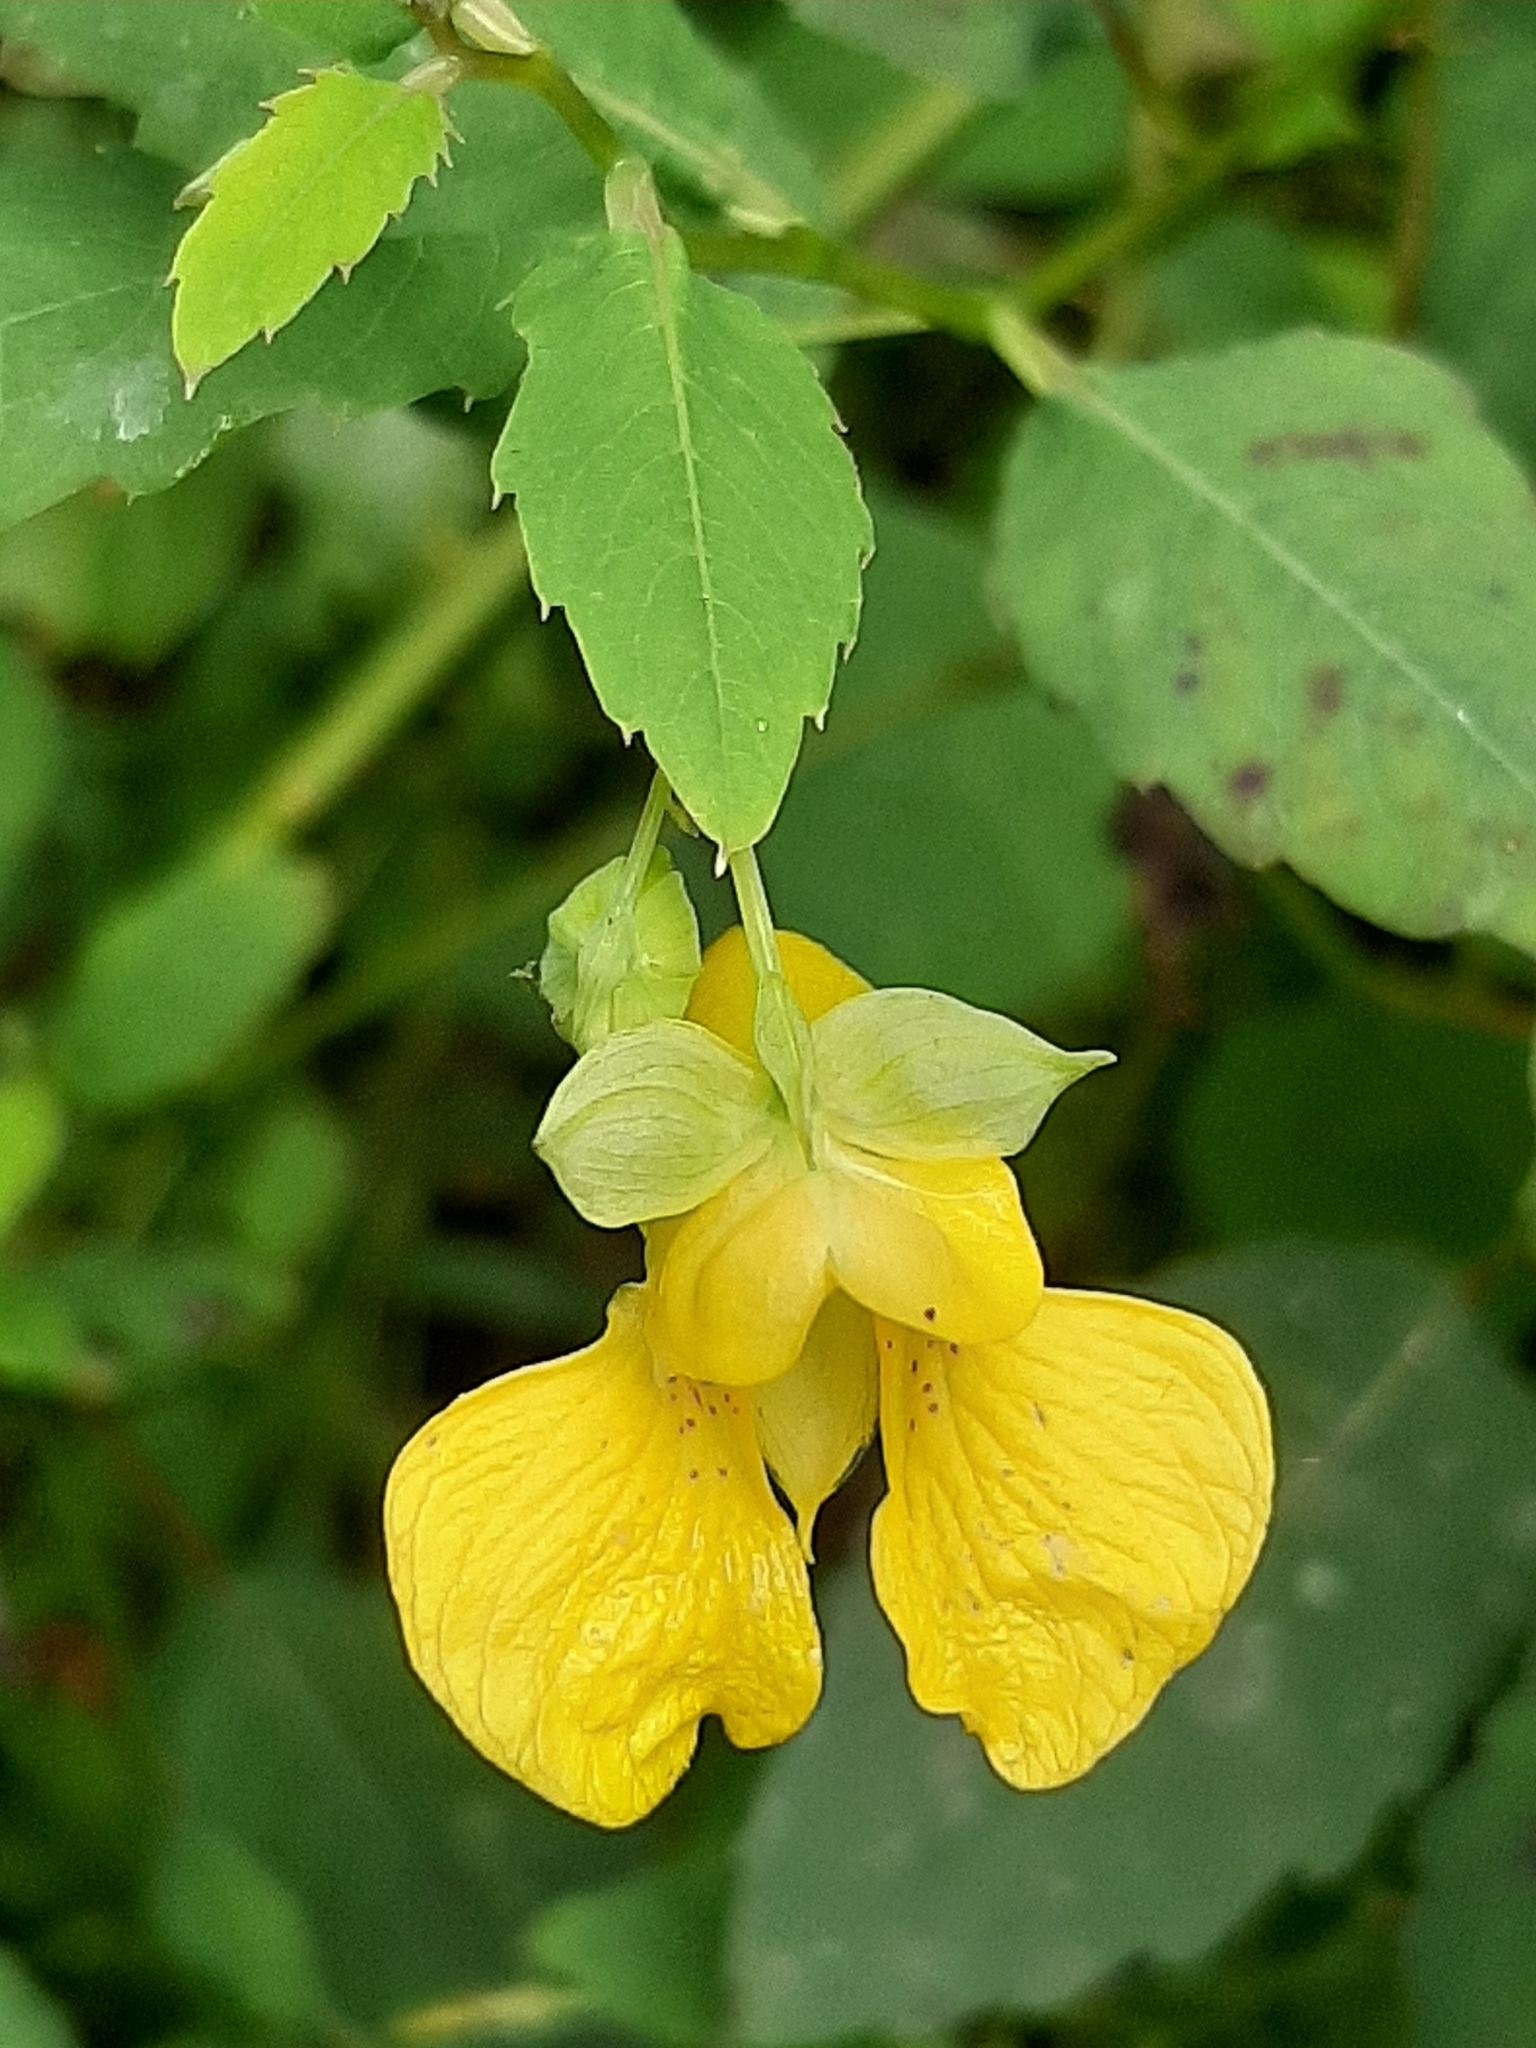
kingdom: Plantae
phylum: Tracheophyta
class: Magnoliopsida
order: Ericales
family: Balsaminaceae
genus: Impatiens
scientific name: Impatiens pallida
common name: Pale snapweed
